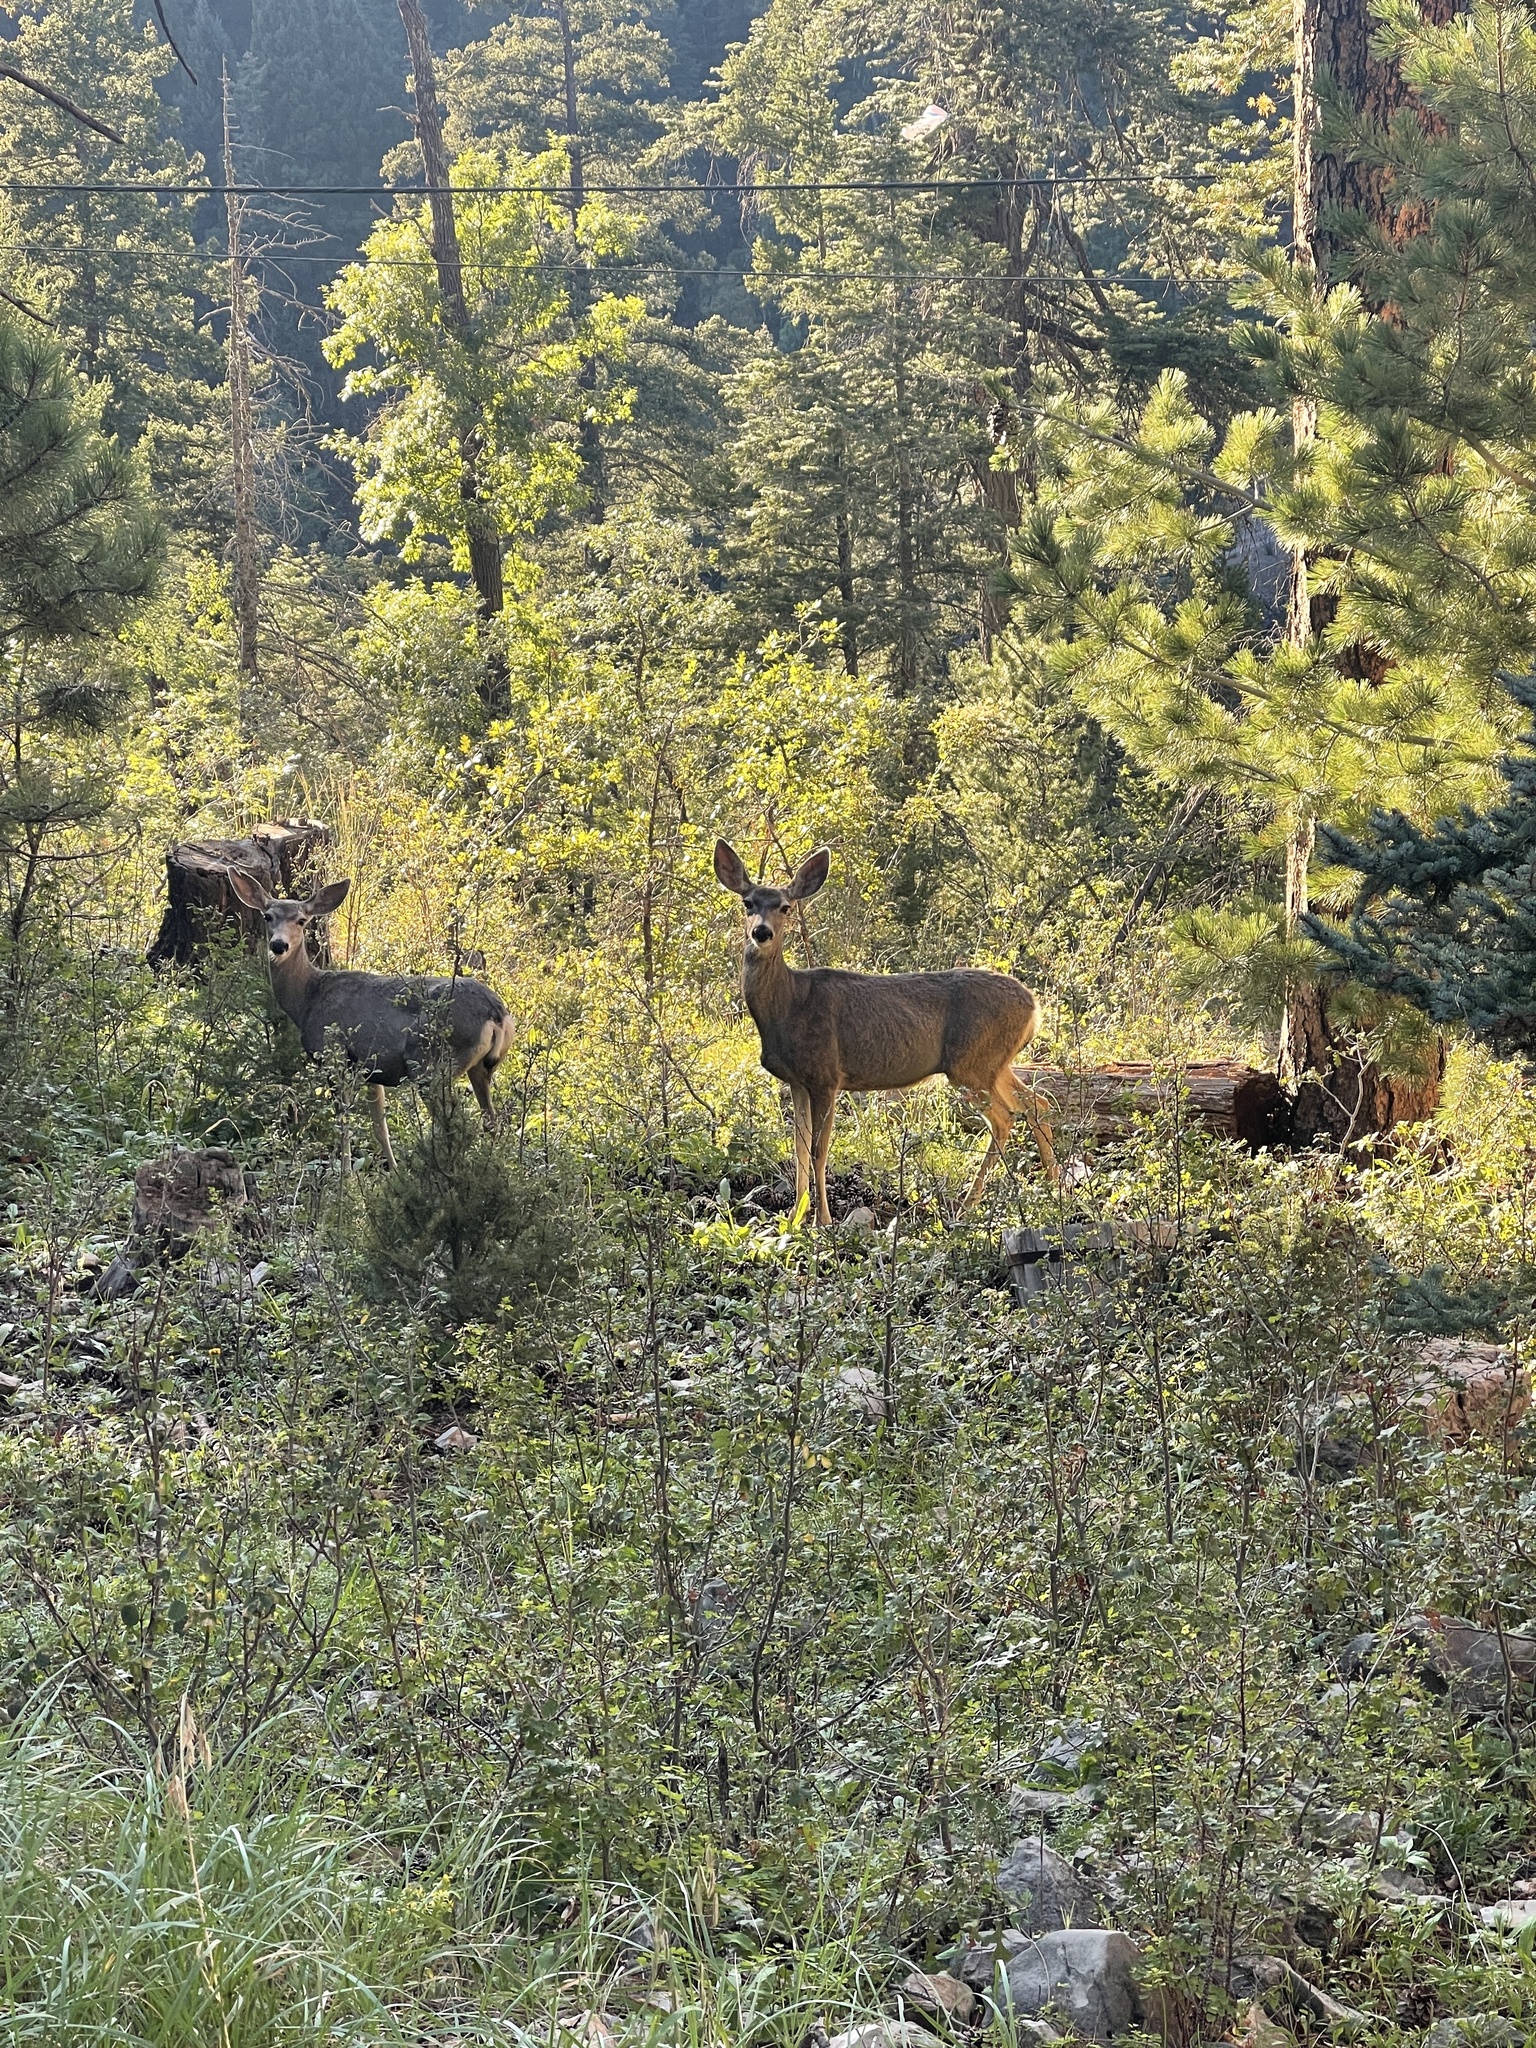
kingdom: Animalia
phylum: Chordata
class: Mammalia
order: Artiodactyla
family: Cervidae
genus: Odocoileus
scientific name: Odocoileus hemionus
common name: Mule deer
